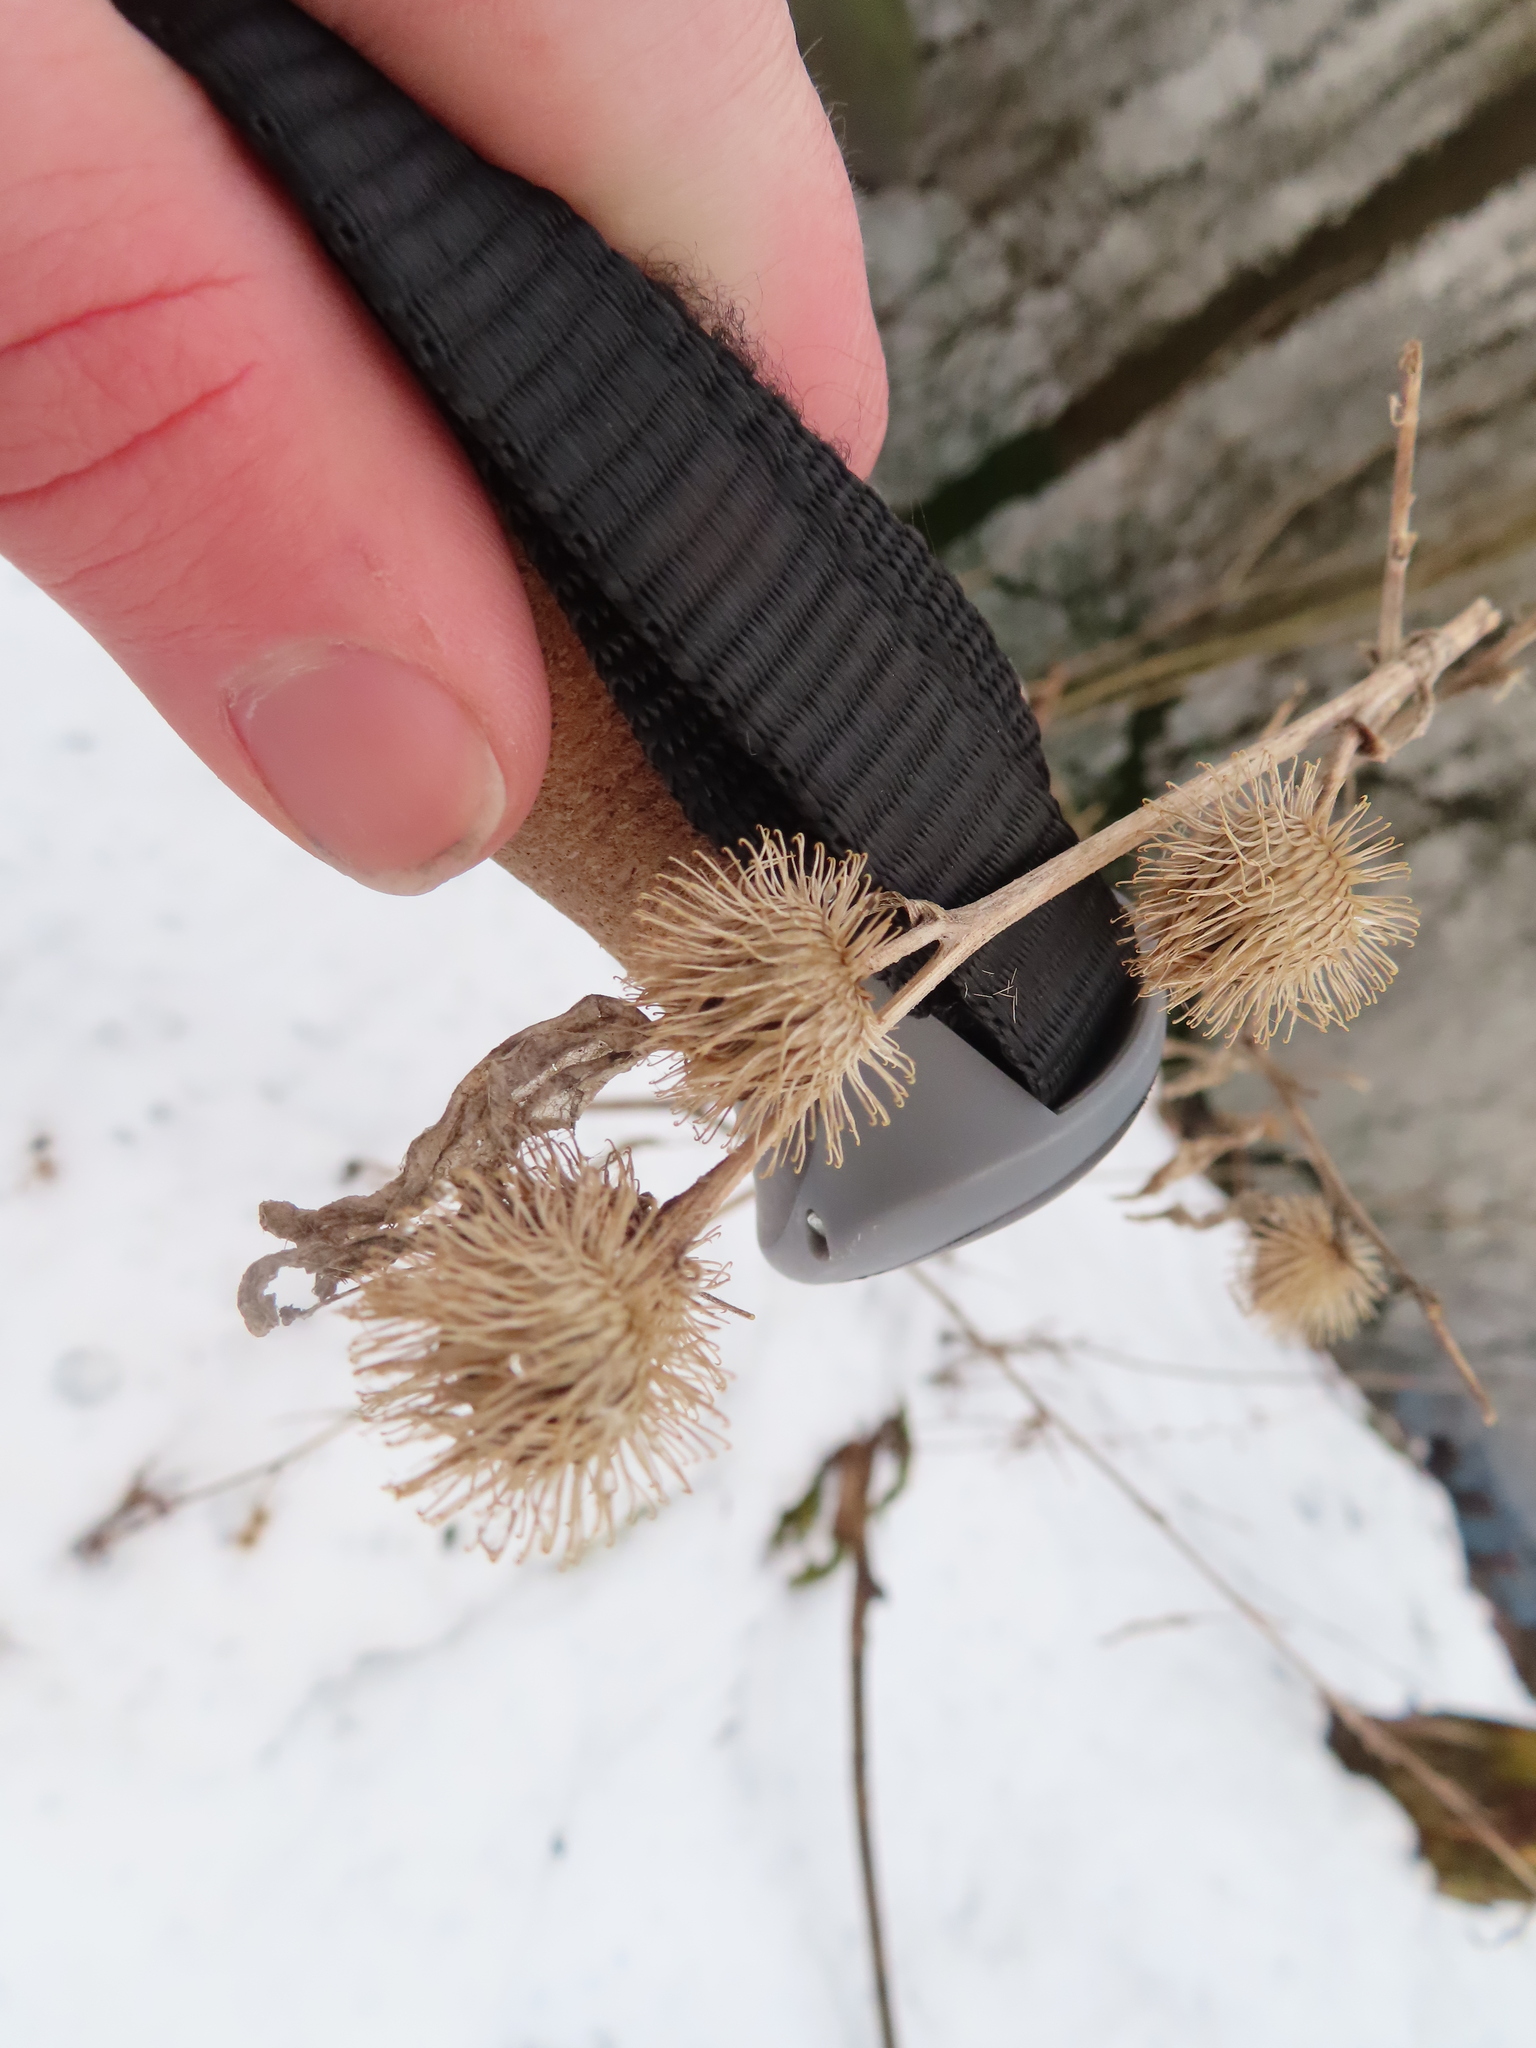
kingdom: Plantae
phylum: Tracheophyta
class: Magnoliopsida
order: Asterales
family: Asteraceae
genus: Arctium
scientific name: Arctium minus
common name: Lesser burdock
